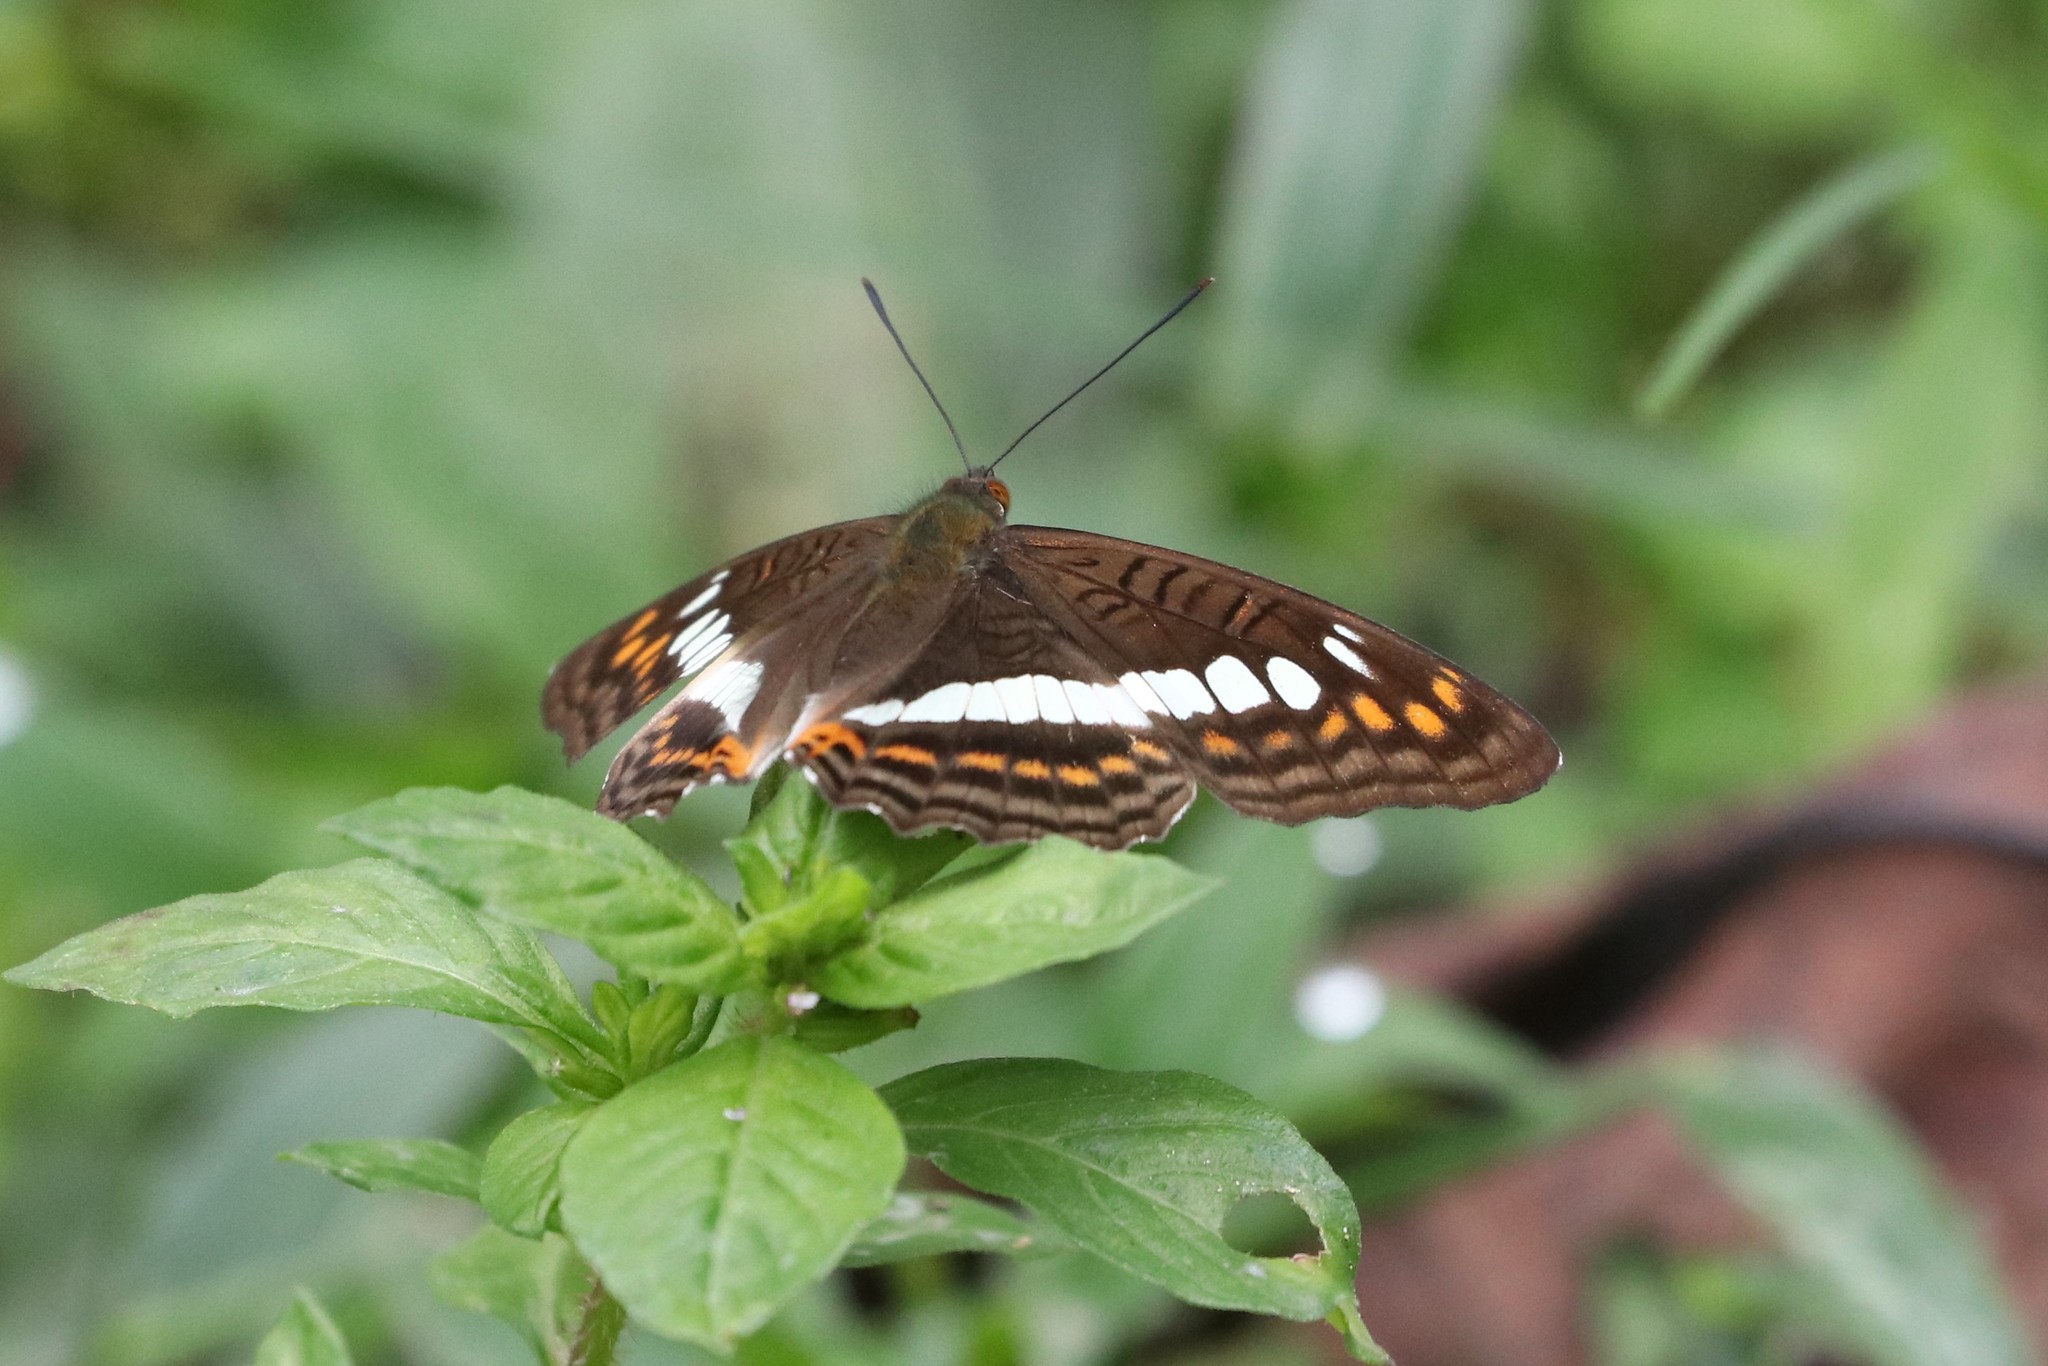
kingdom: Animalia
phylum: Arthropoda
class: Insecta
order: Lepidoptera
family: Nymphalidae
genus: Limenitis
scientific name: Limenitis alala
